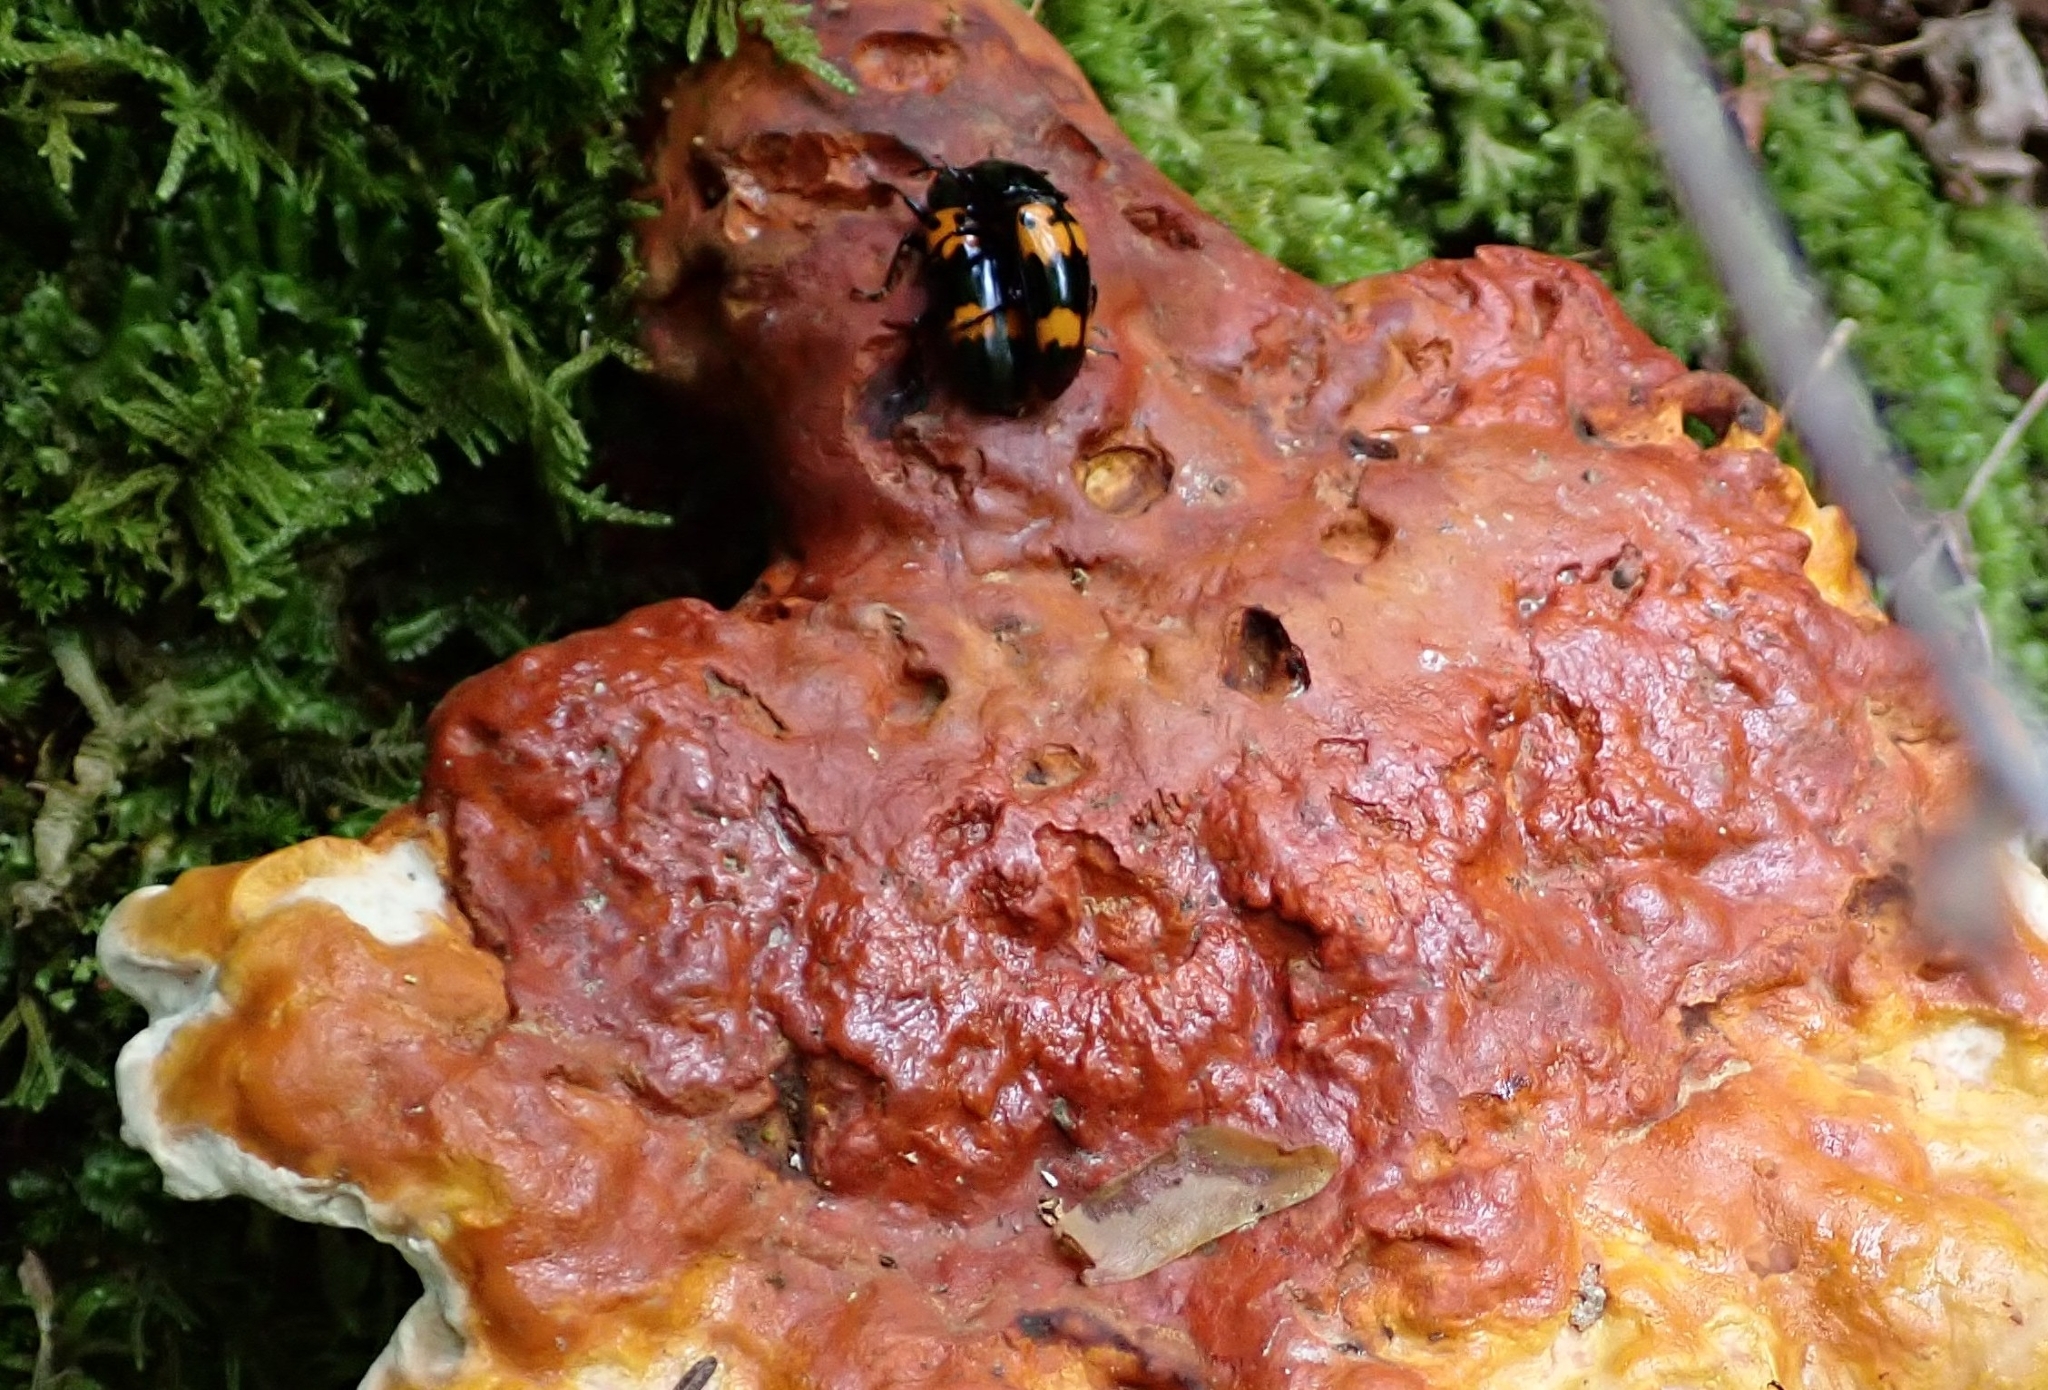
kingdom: Animalia
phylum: Arthropoda
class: Insecta
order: Coleoptera
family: Erotylidae
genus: Megalodacne
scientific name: Megalodacne heros
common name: Pleasing fungus beetle
